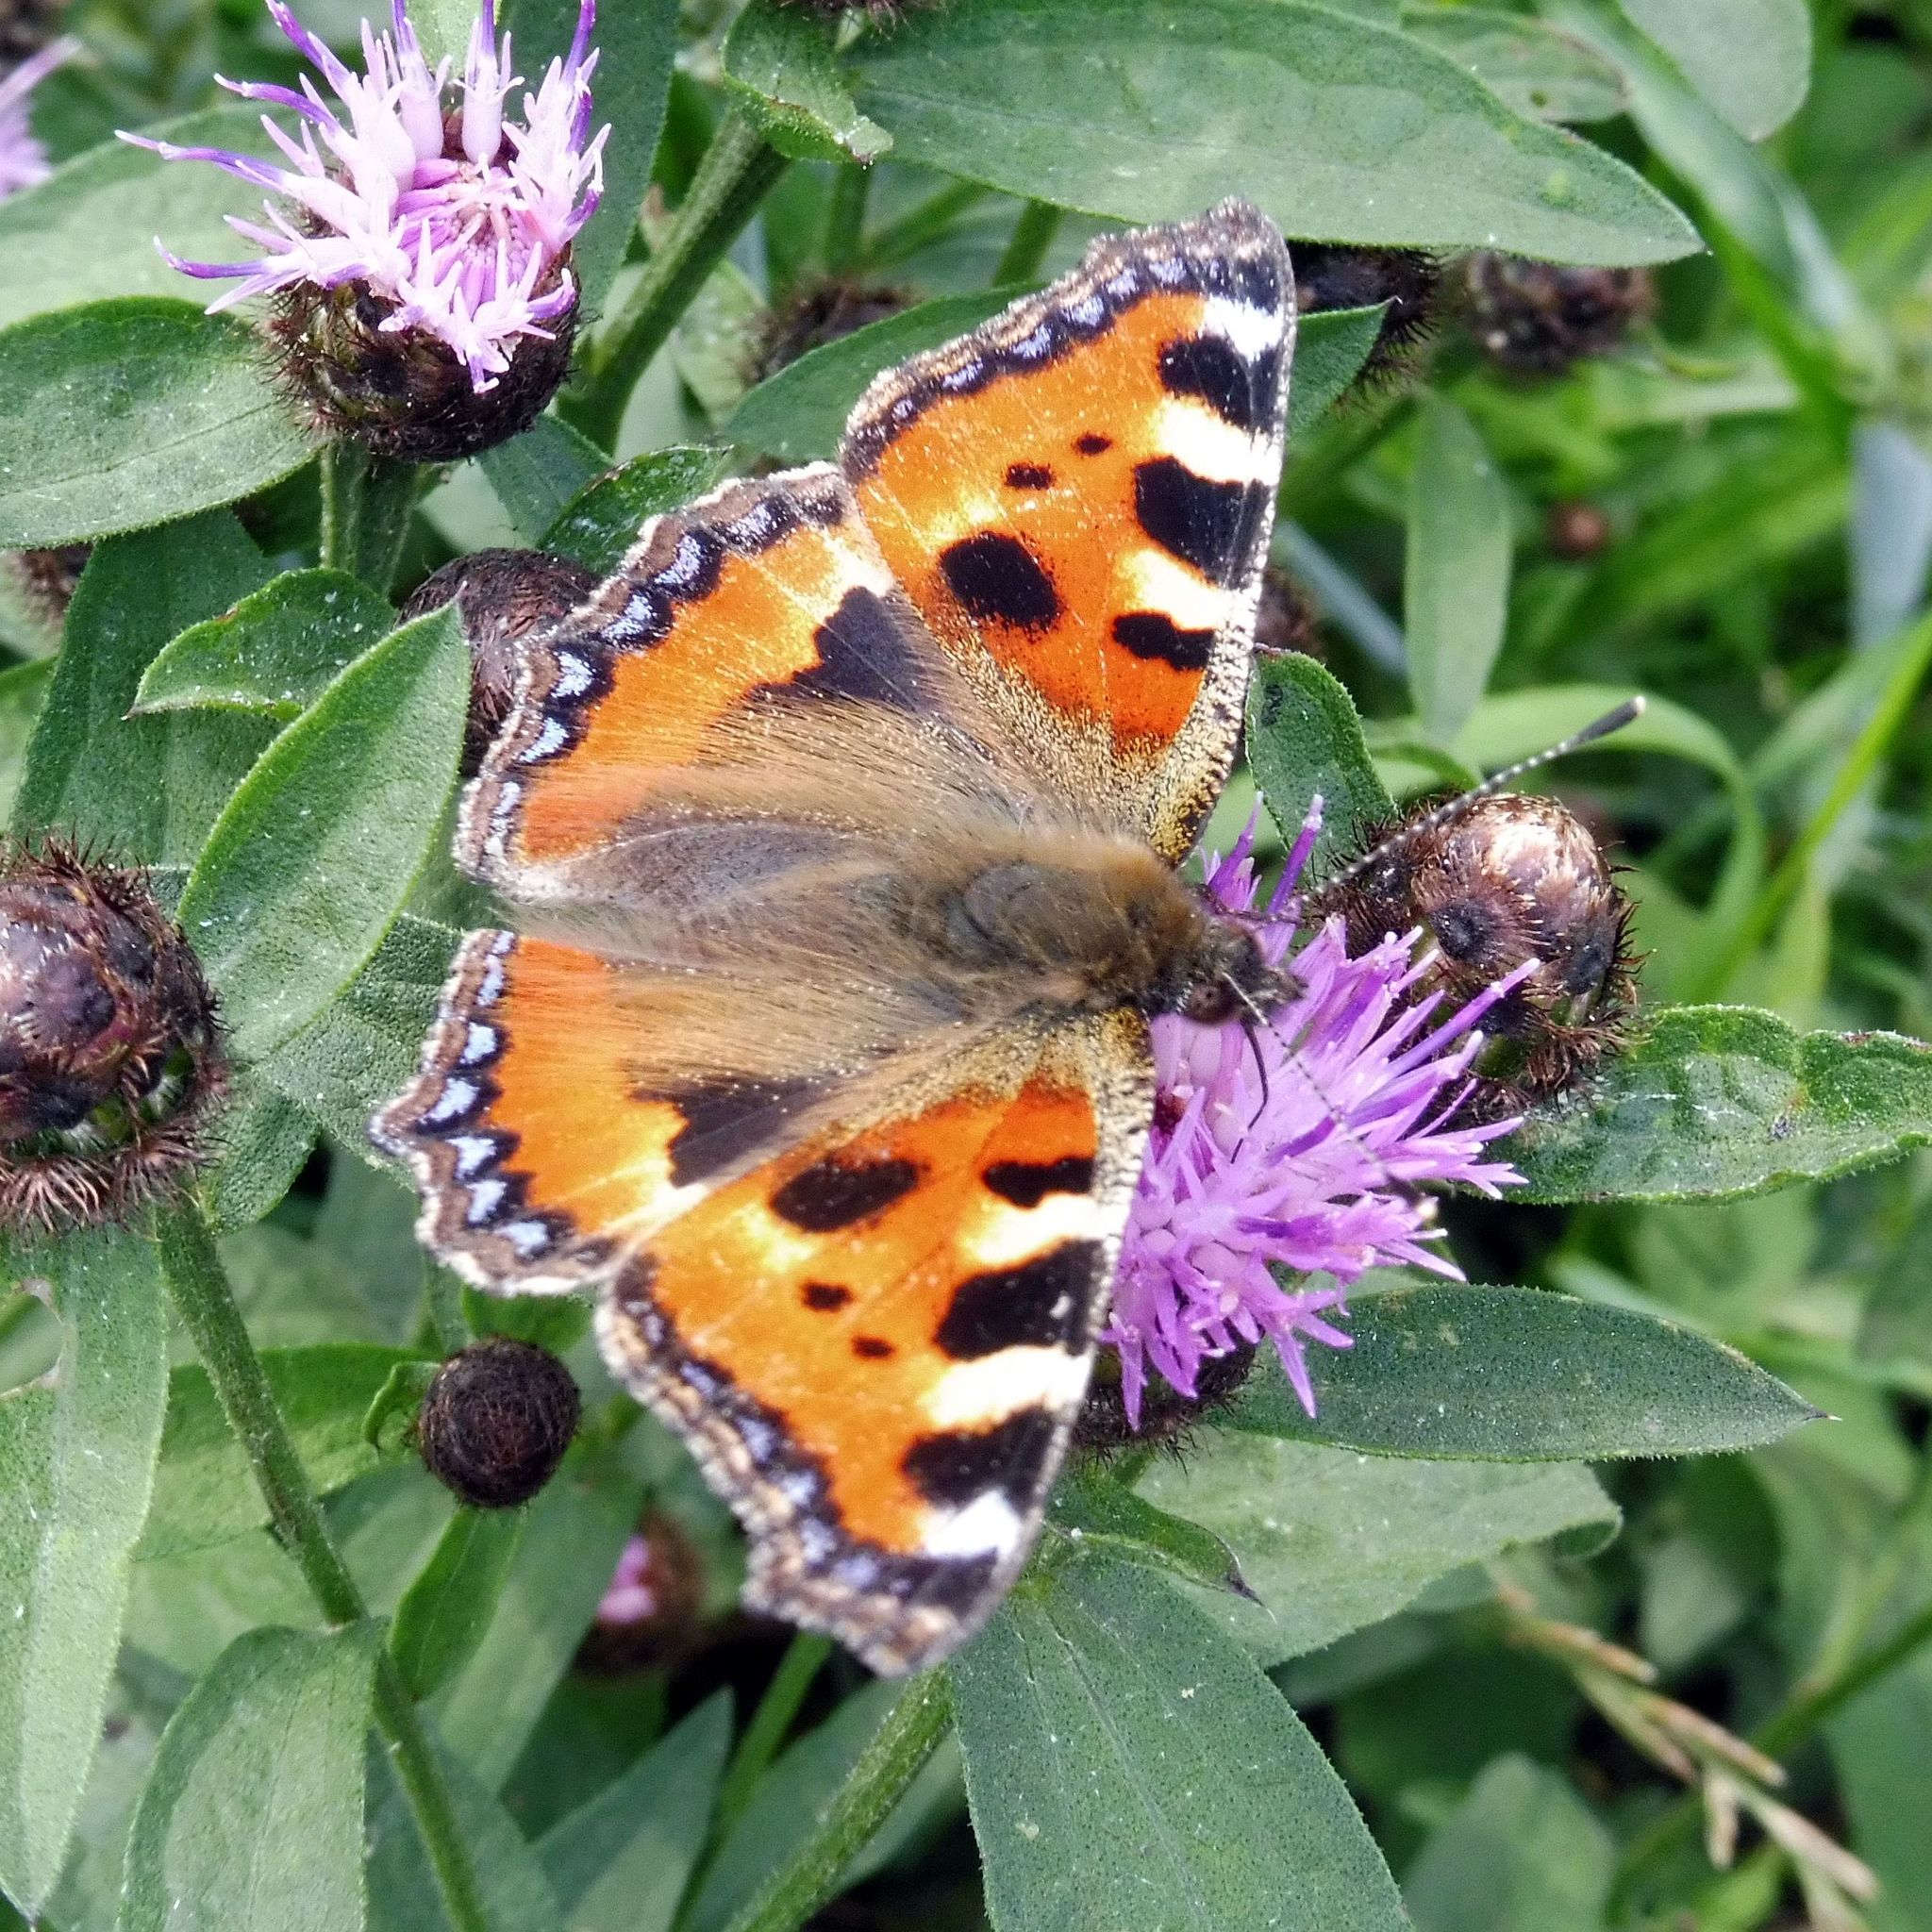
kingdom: Animalia
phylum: Arthropoda
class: Insecta
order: Lepidoptera
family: Nymphalidae
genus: Aglais
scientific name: Aglais urticae
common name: Small tortoiseshell
